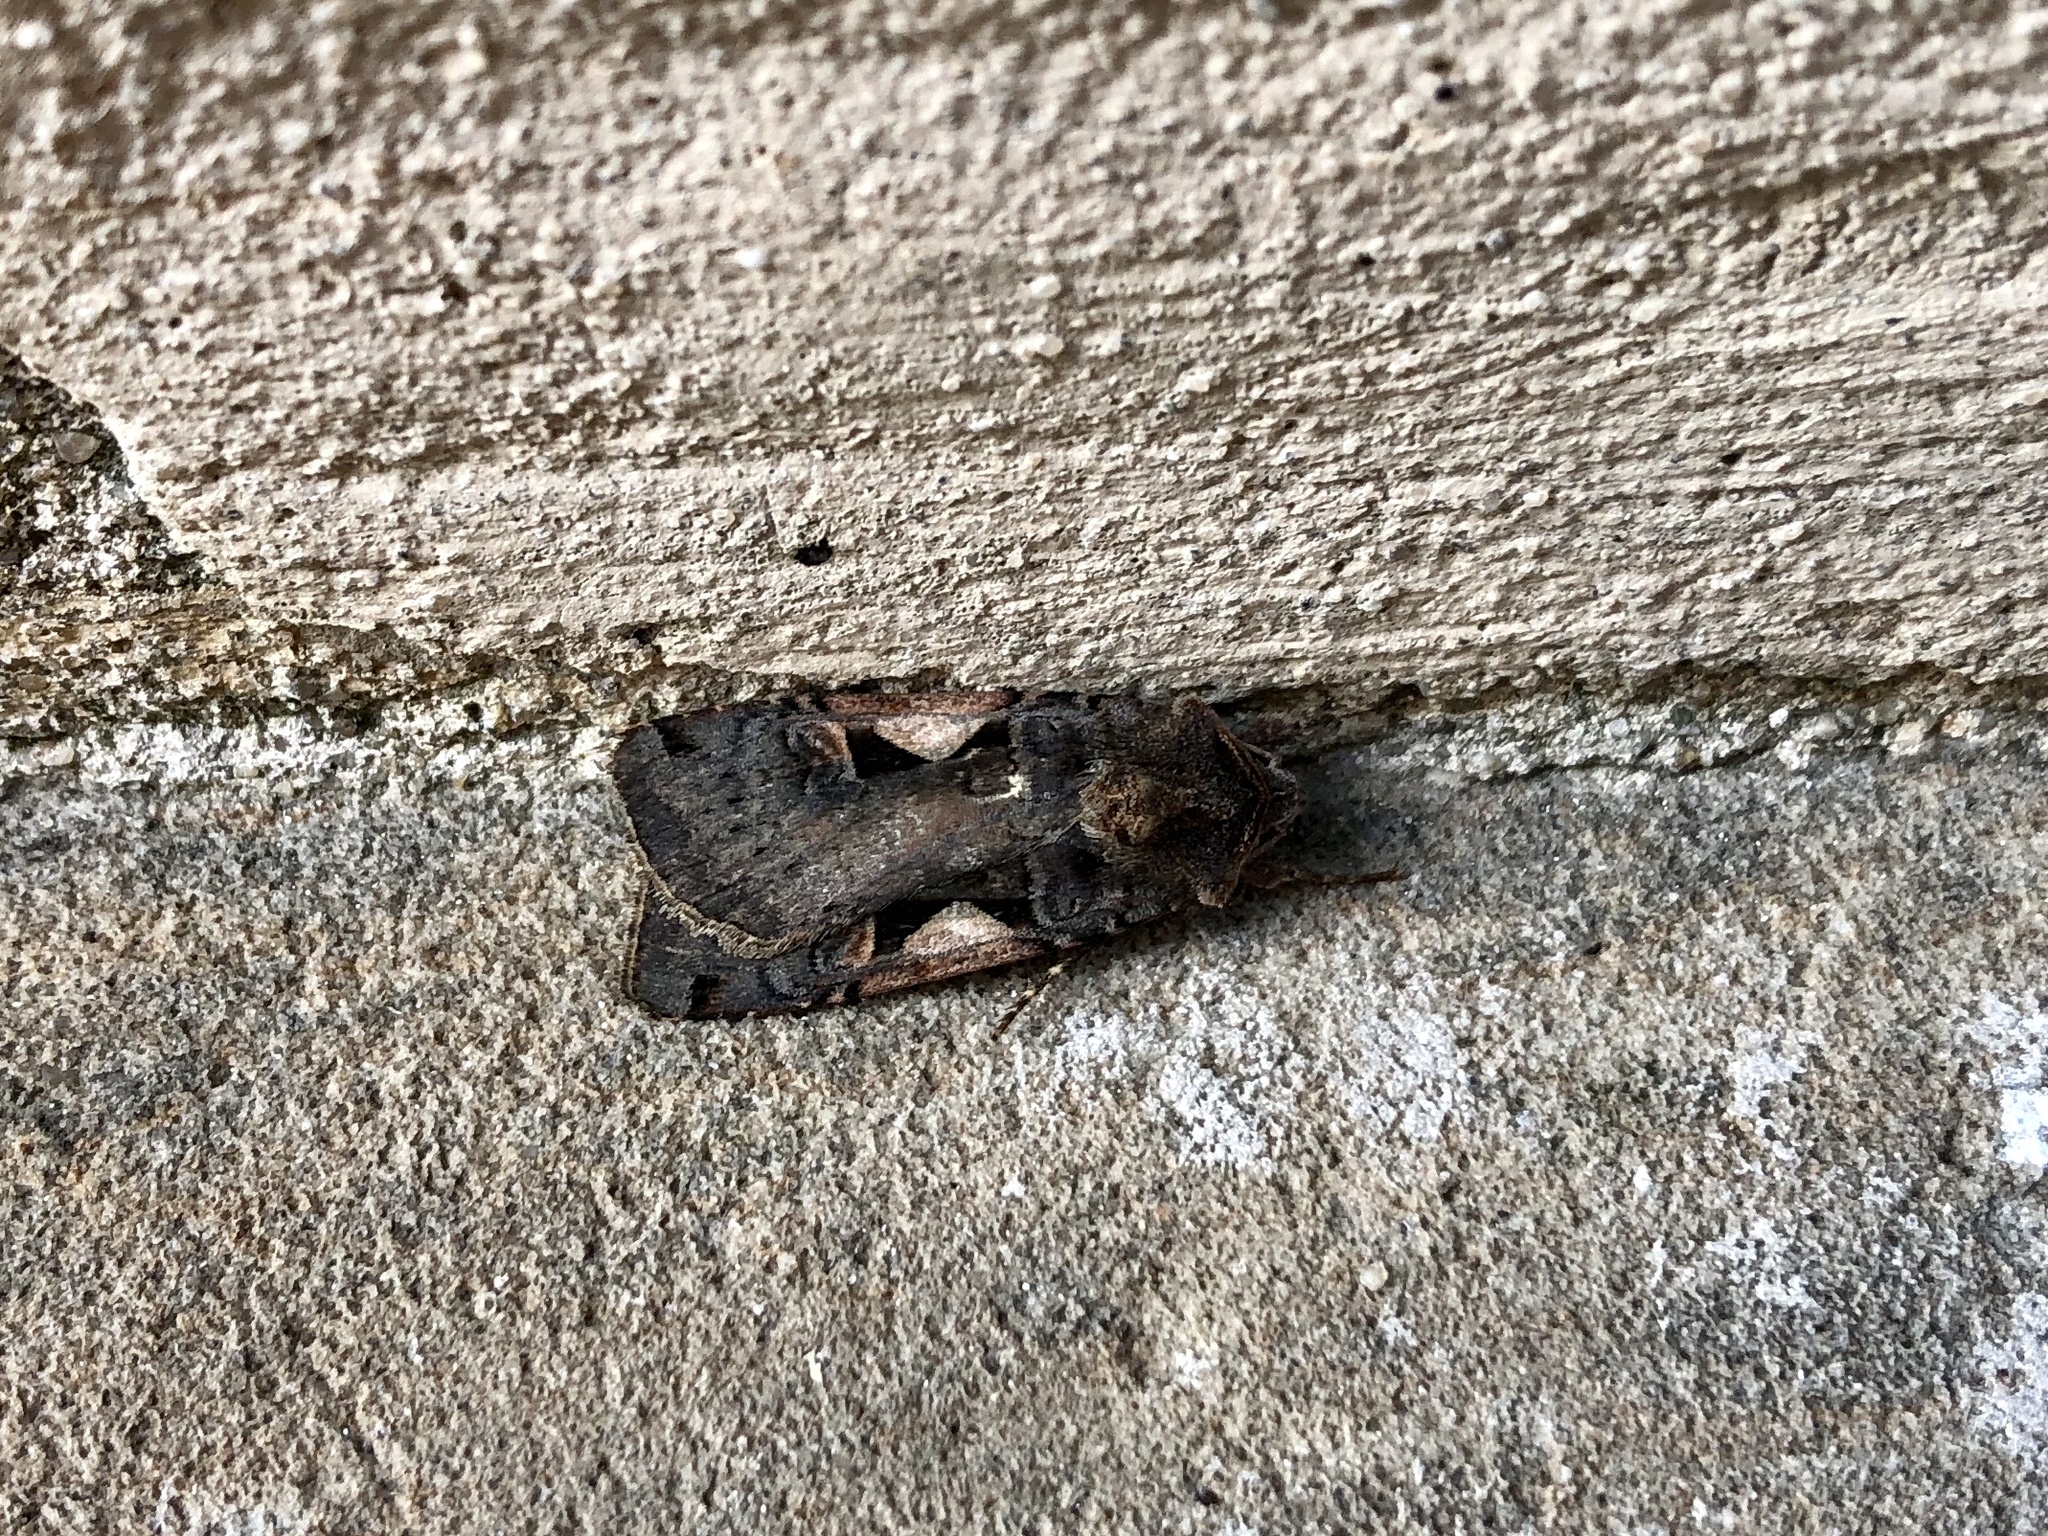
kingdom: Animalia
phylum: Arthropoda
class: Insecta
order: Lepidoptera
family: Noctuidae
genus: Xestia
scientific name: Xestia c-nigrum
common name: Setaceous hebrew character
